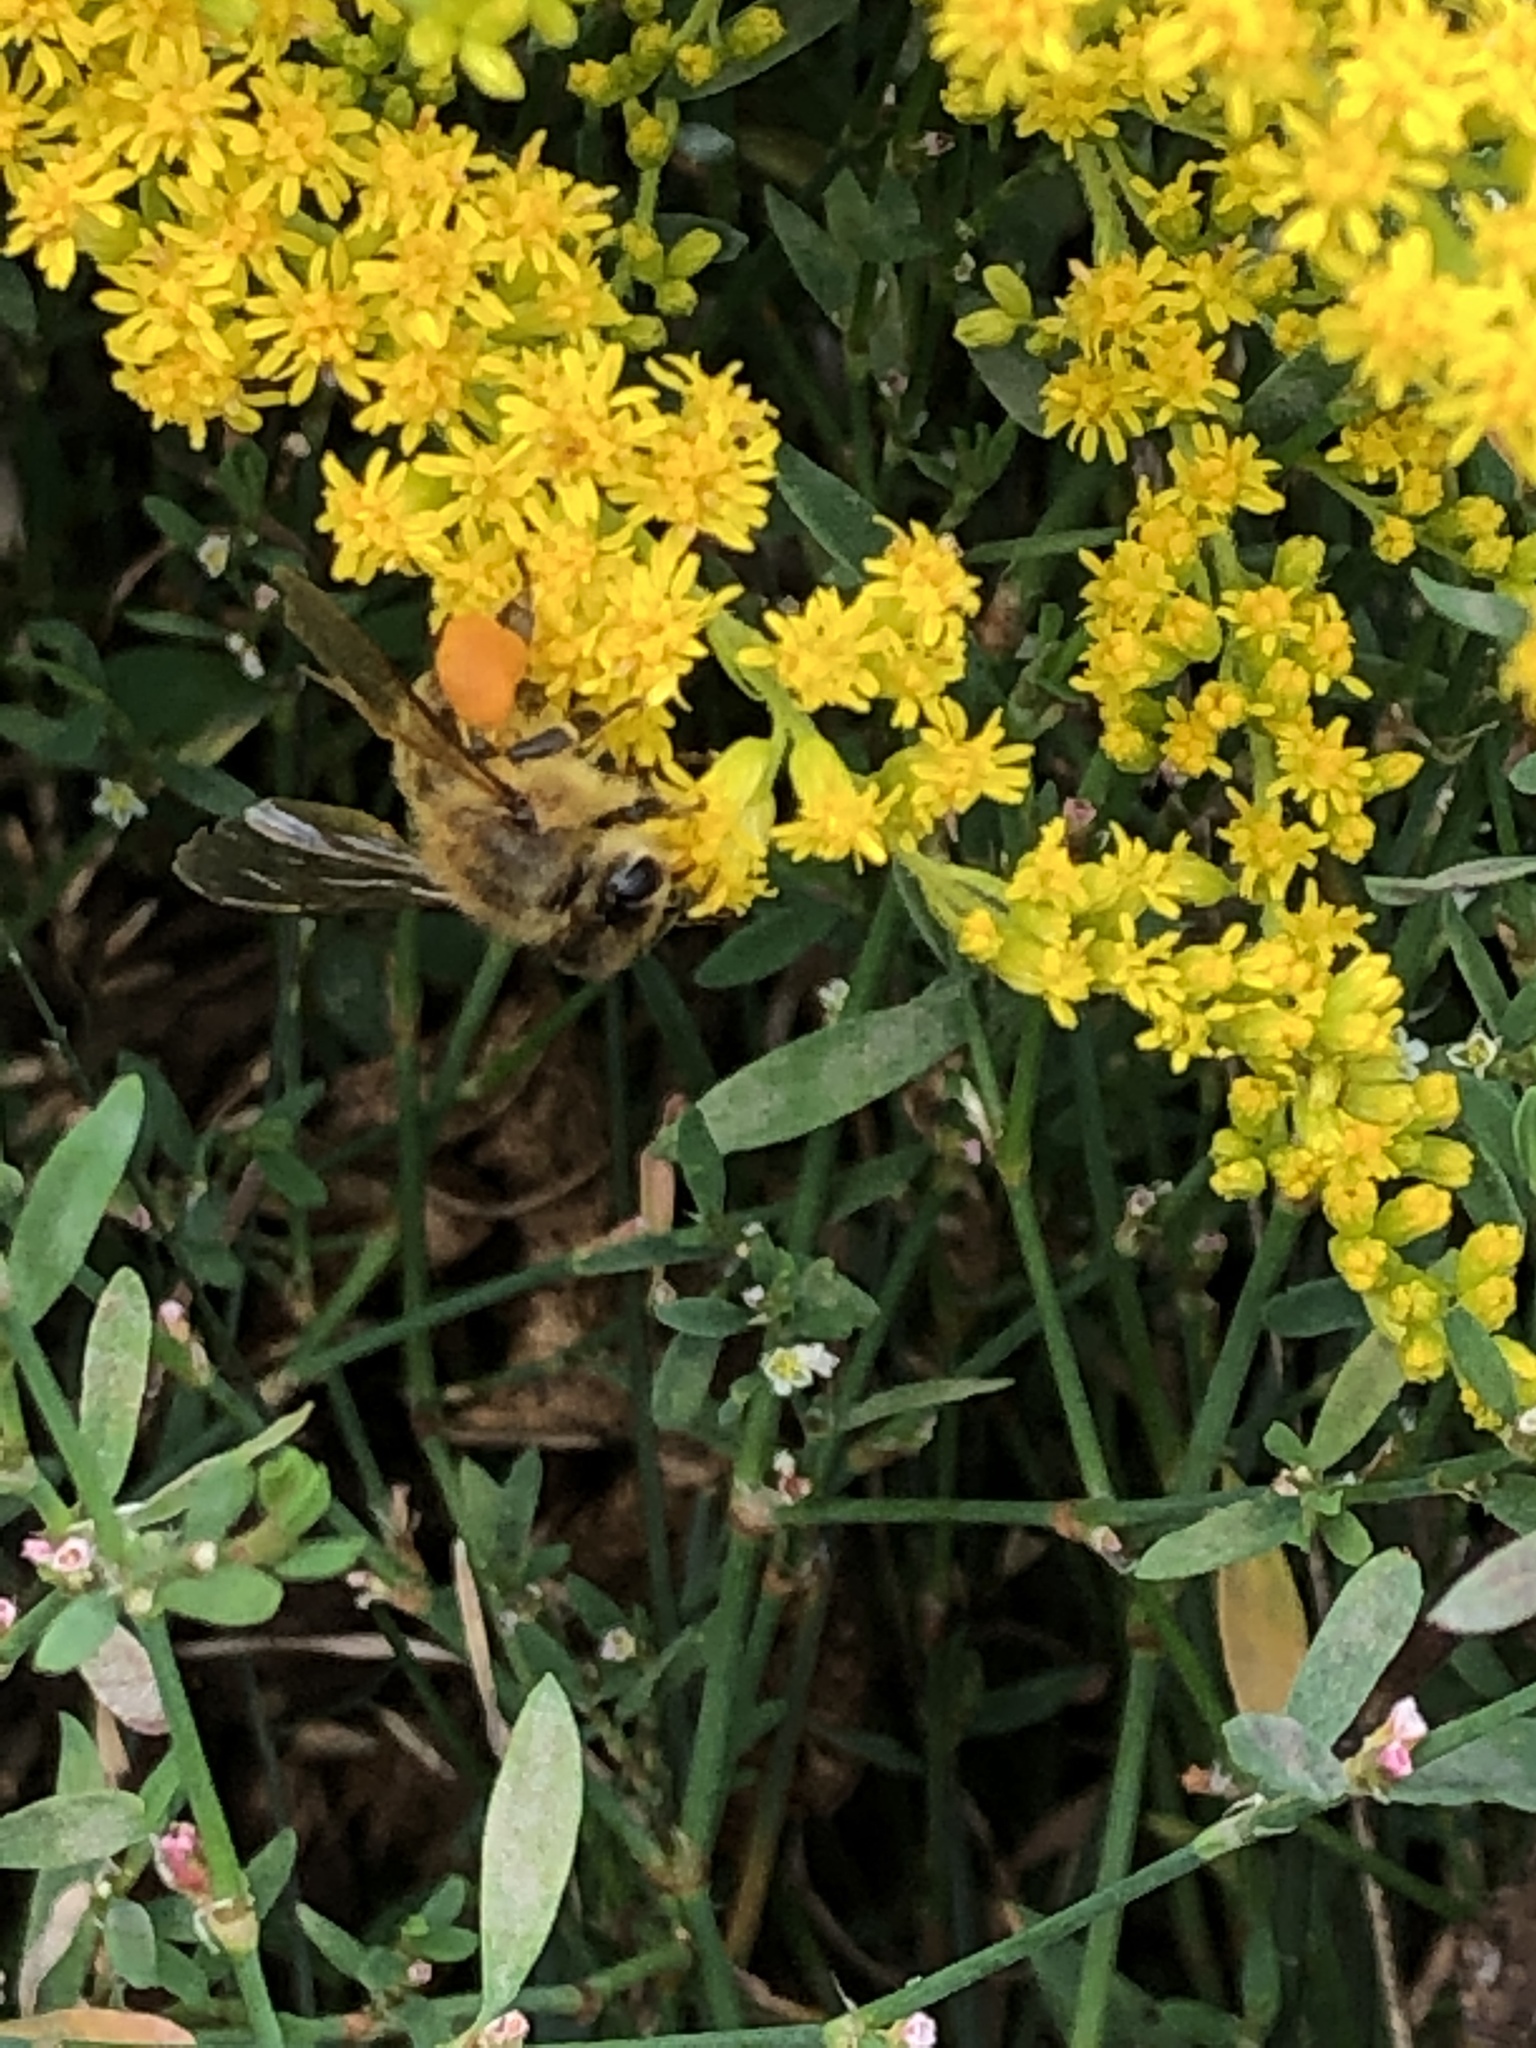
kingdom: Animalia
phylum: Arthropoda
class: Insecta
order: Hymenoptera
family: Apidae
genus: Apis
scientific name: Apis mellifera
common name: Honey bee
